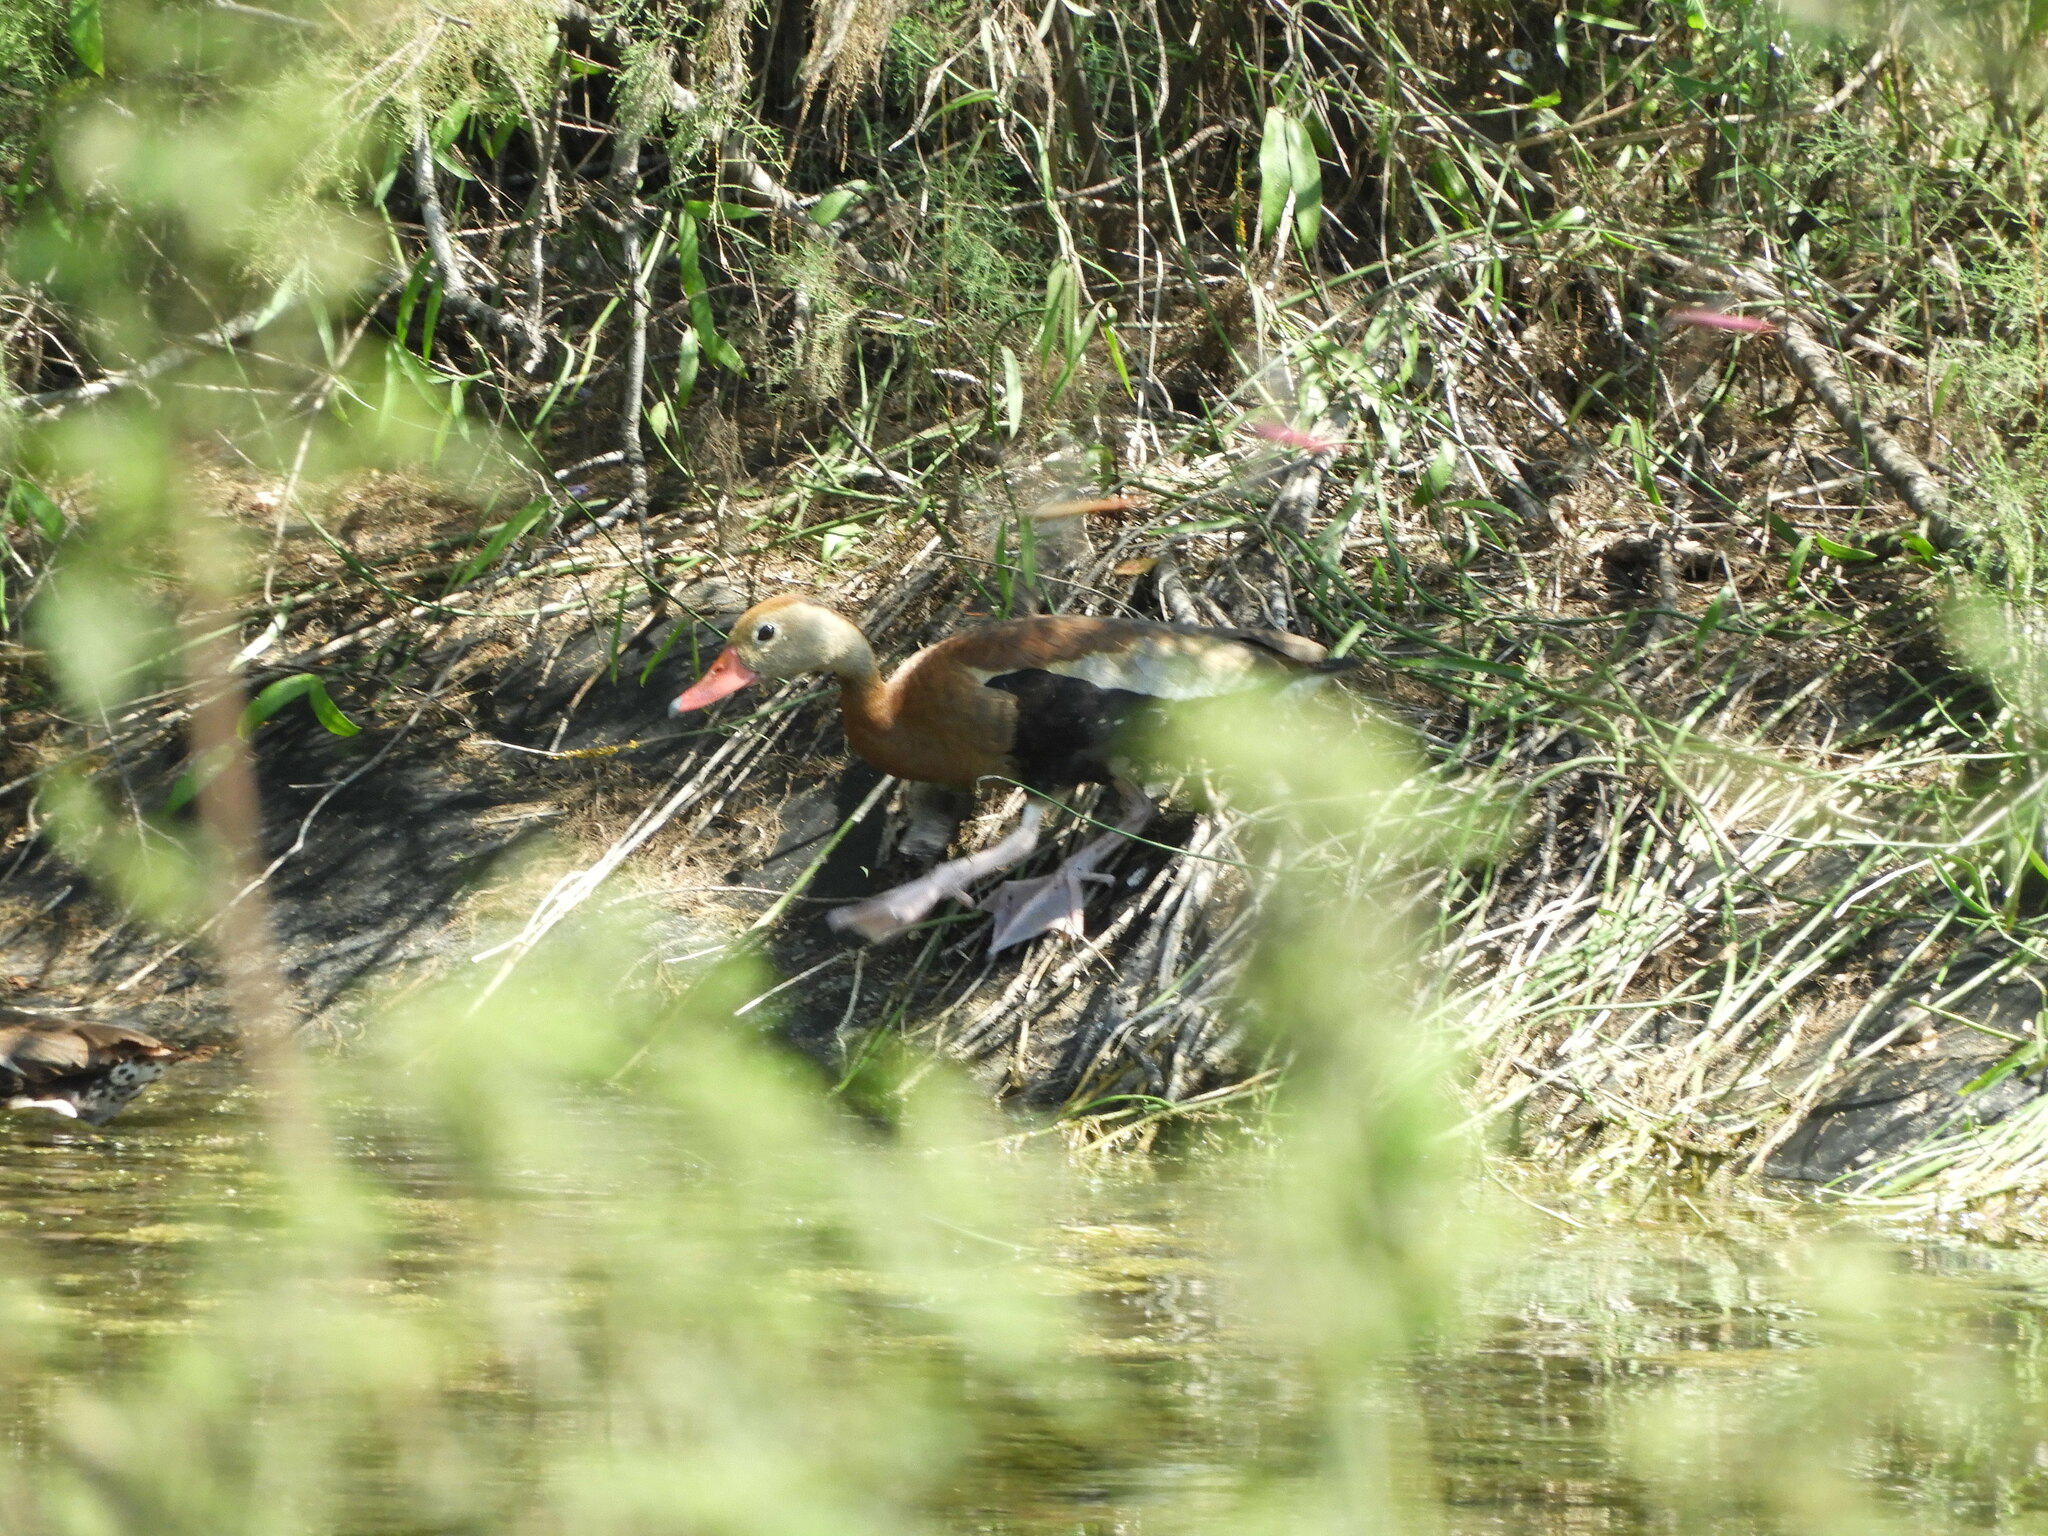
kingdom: Animalia
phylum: Chordata
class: Aves
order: Anseriformes
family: Anatidae
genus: Dendrocygna
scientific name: Dendrocygna autumnalis
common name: Black-bellied whistling duck
